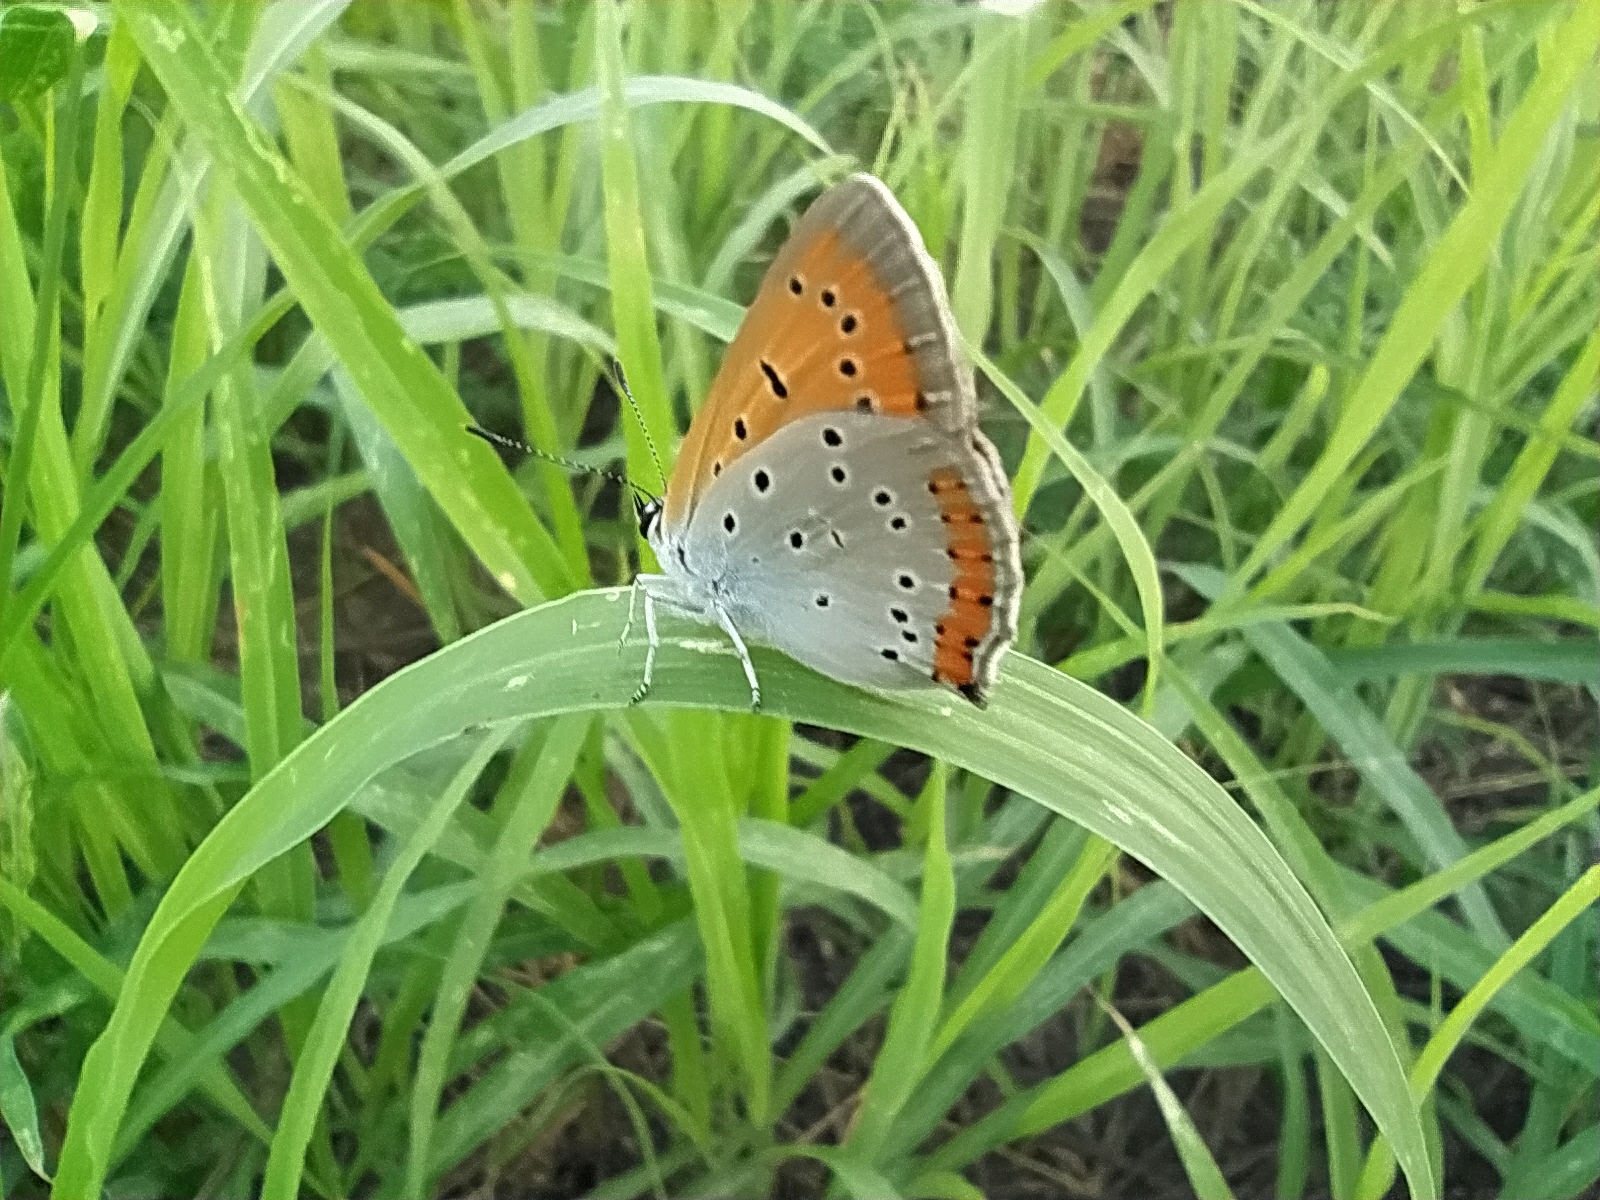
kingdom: Animalia
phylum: Arthropoda
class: Insecta
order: Lepidoptera
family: Lycaenidae
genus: Lycaena
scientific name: Lycaena dispar
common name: Large copper
